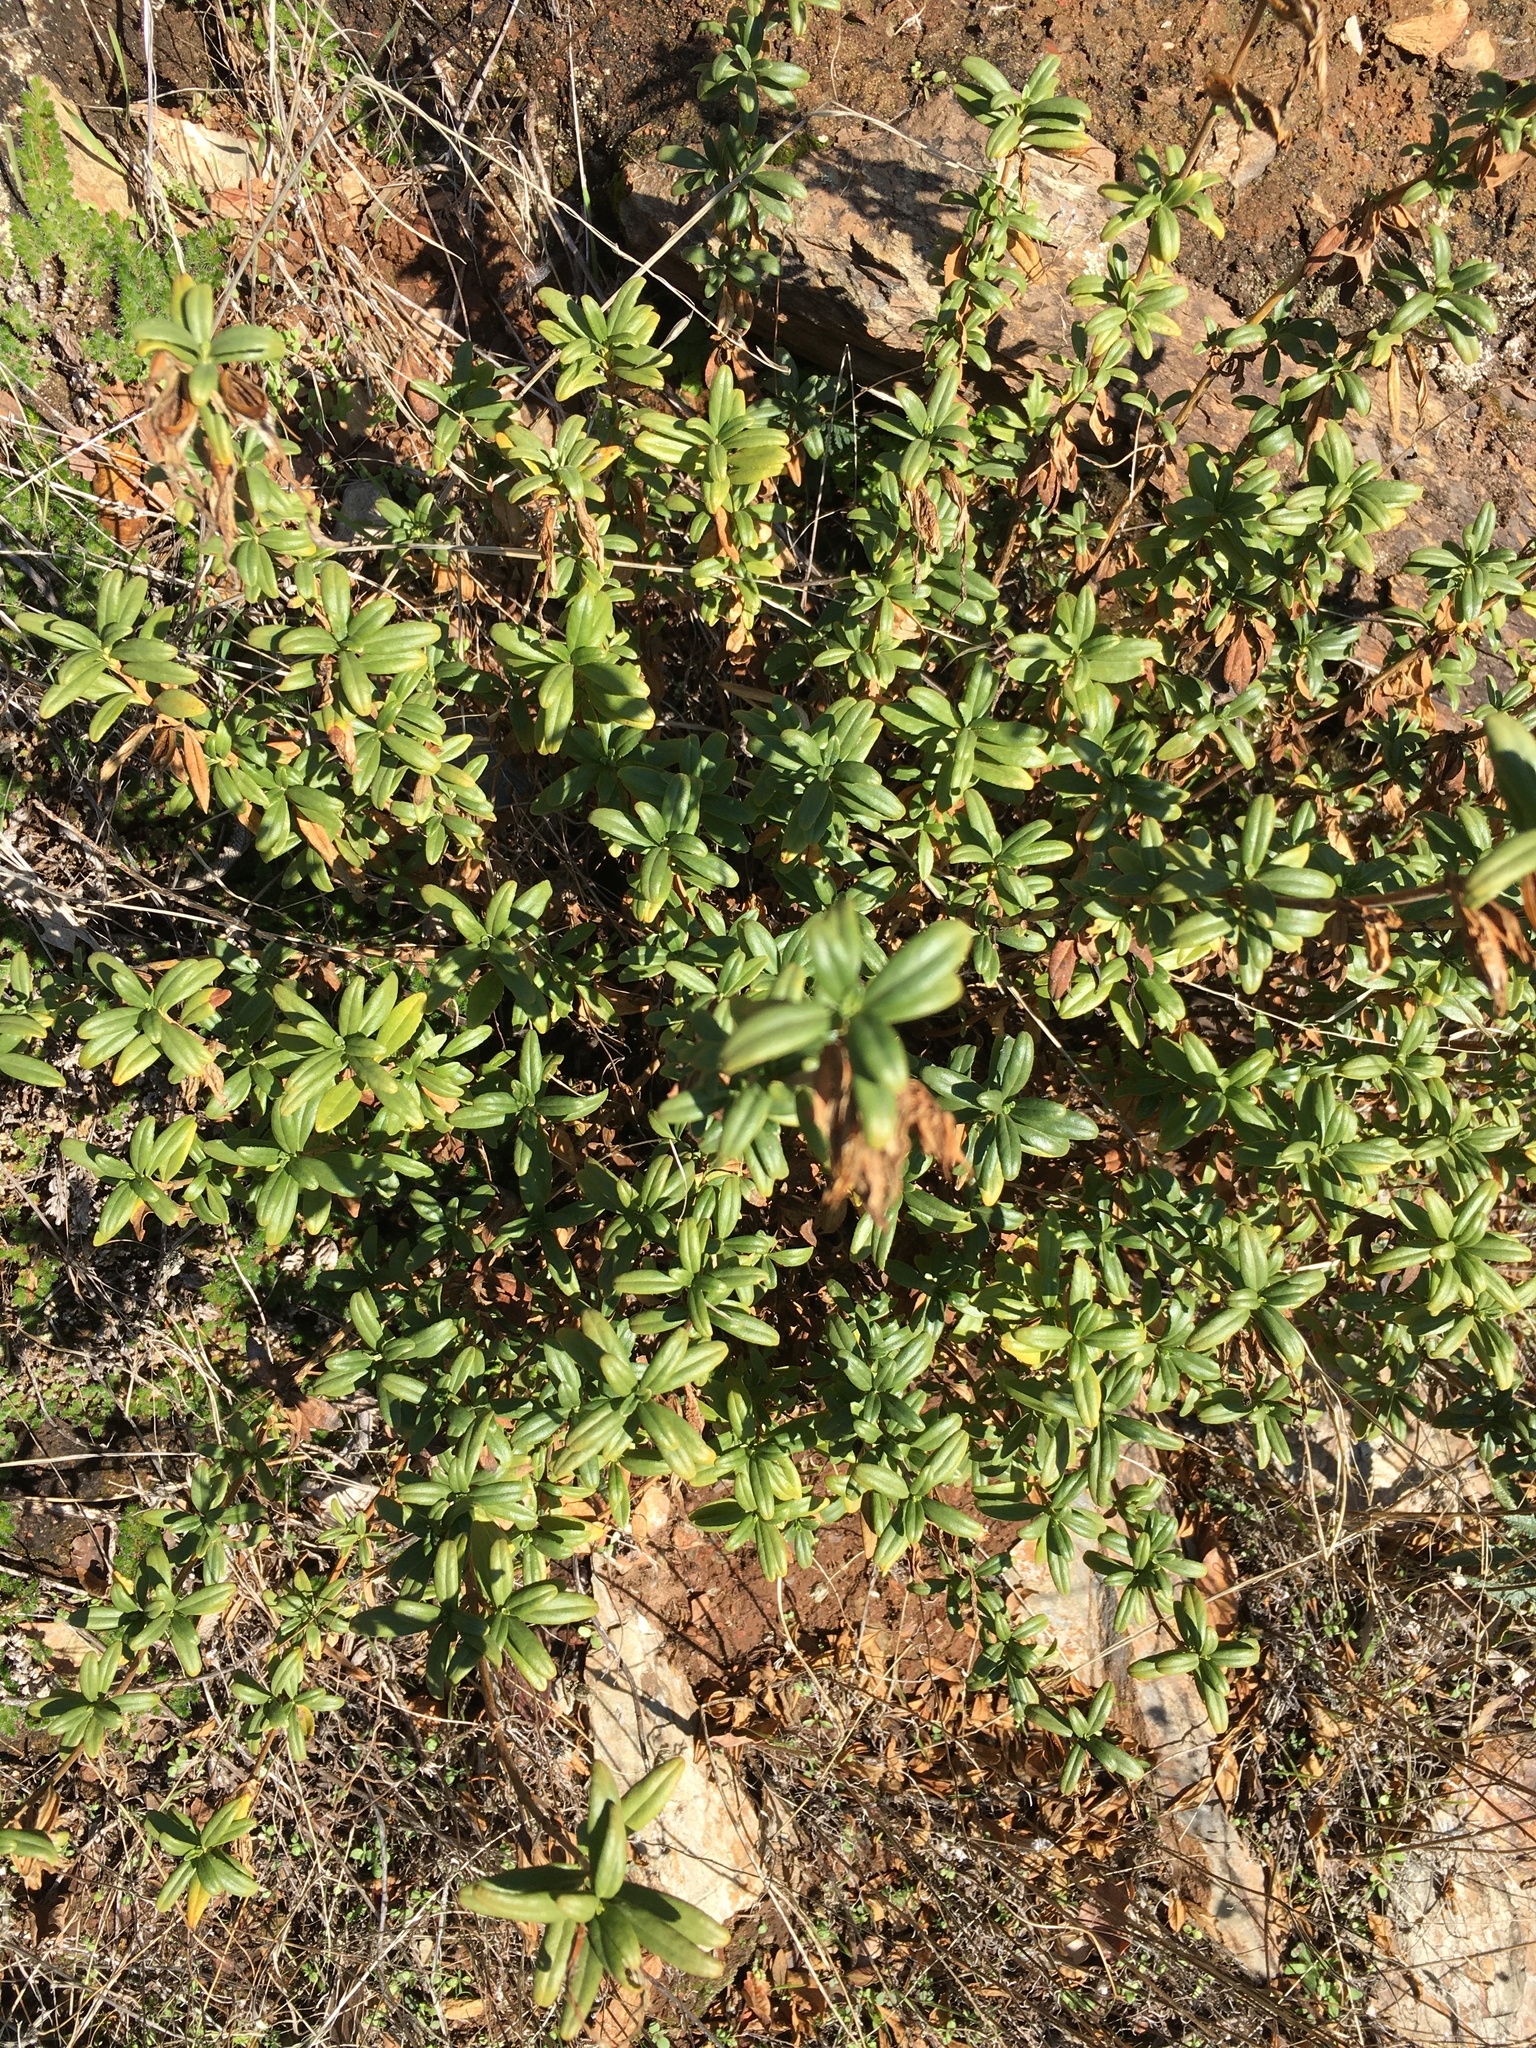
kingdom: Plantae
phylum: Tracheophyta
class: Magnoliopsida
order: Lamiales
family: Phrymaceae
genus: Diplacus
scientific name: Diplacus grandiflorus
